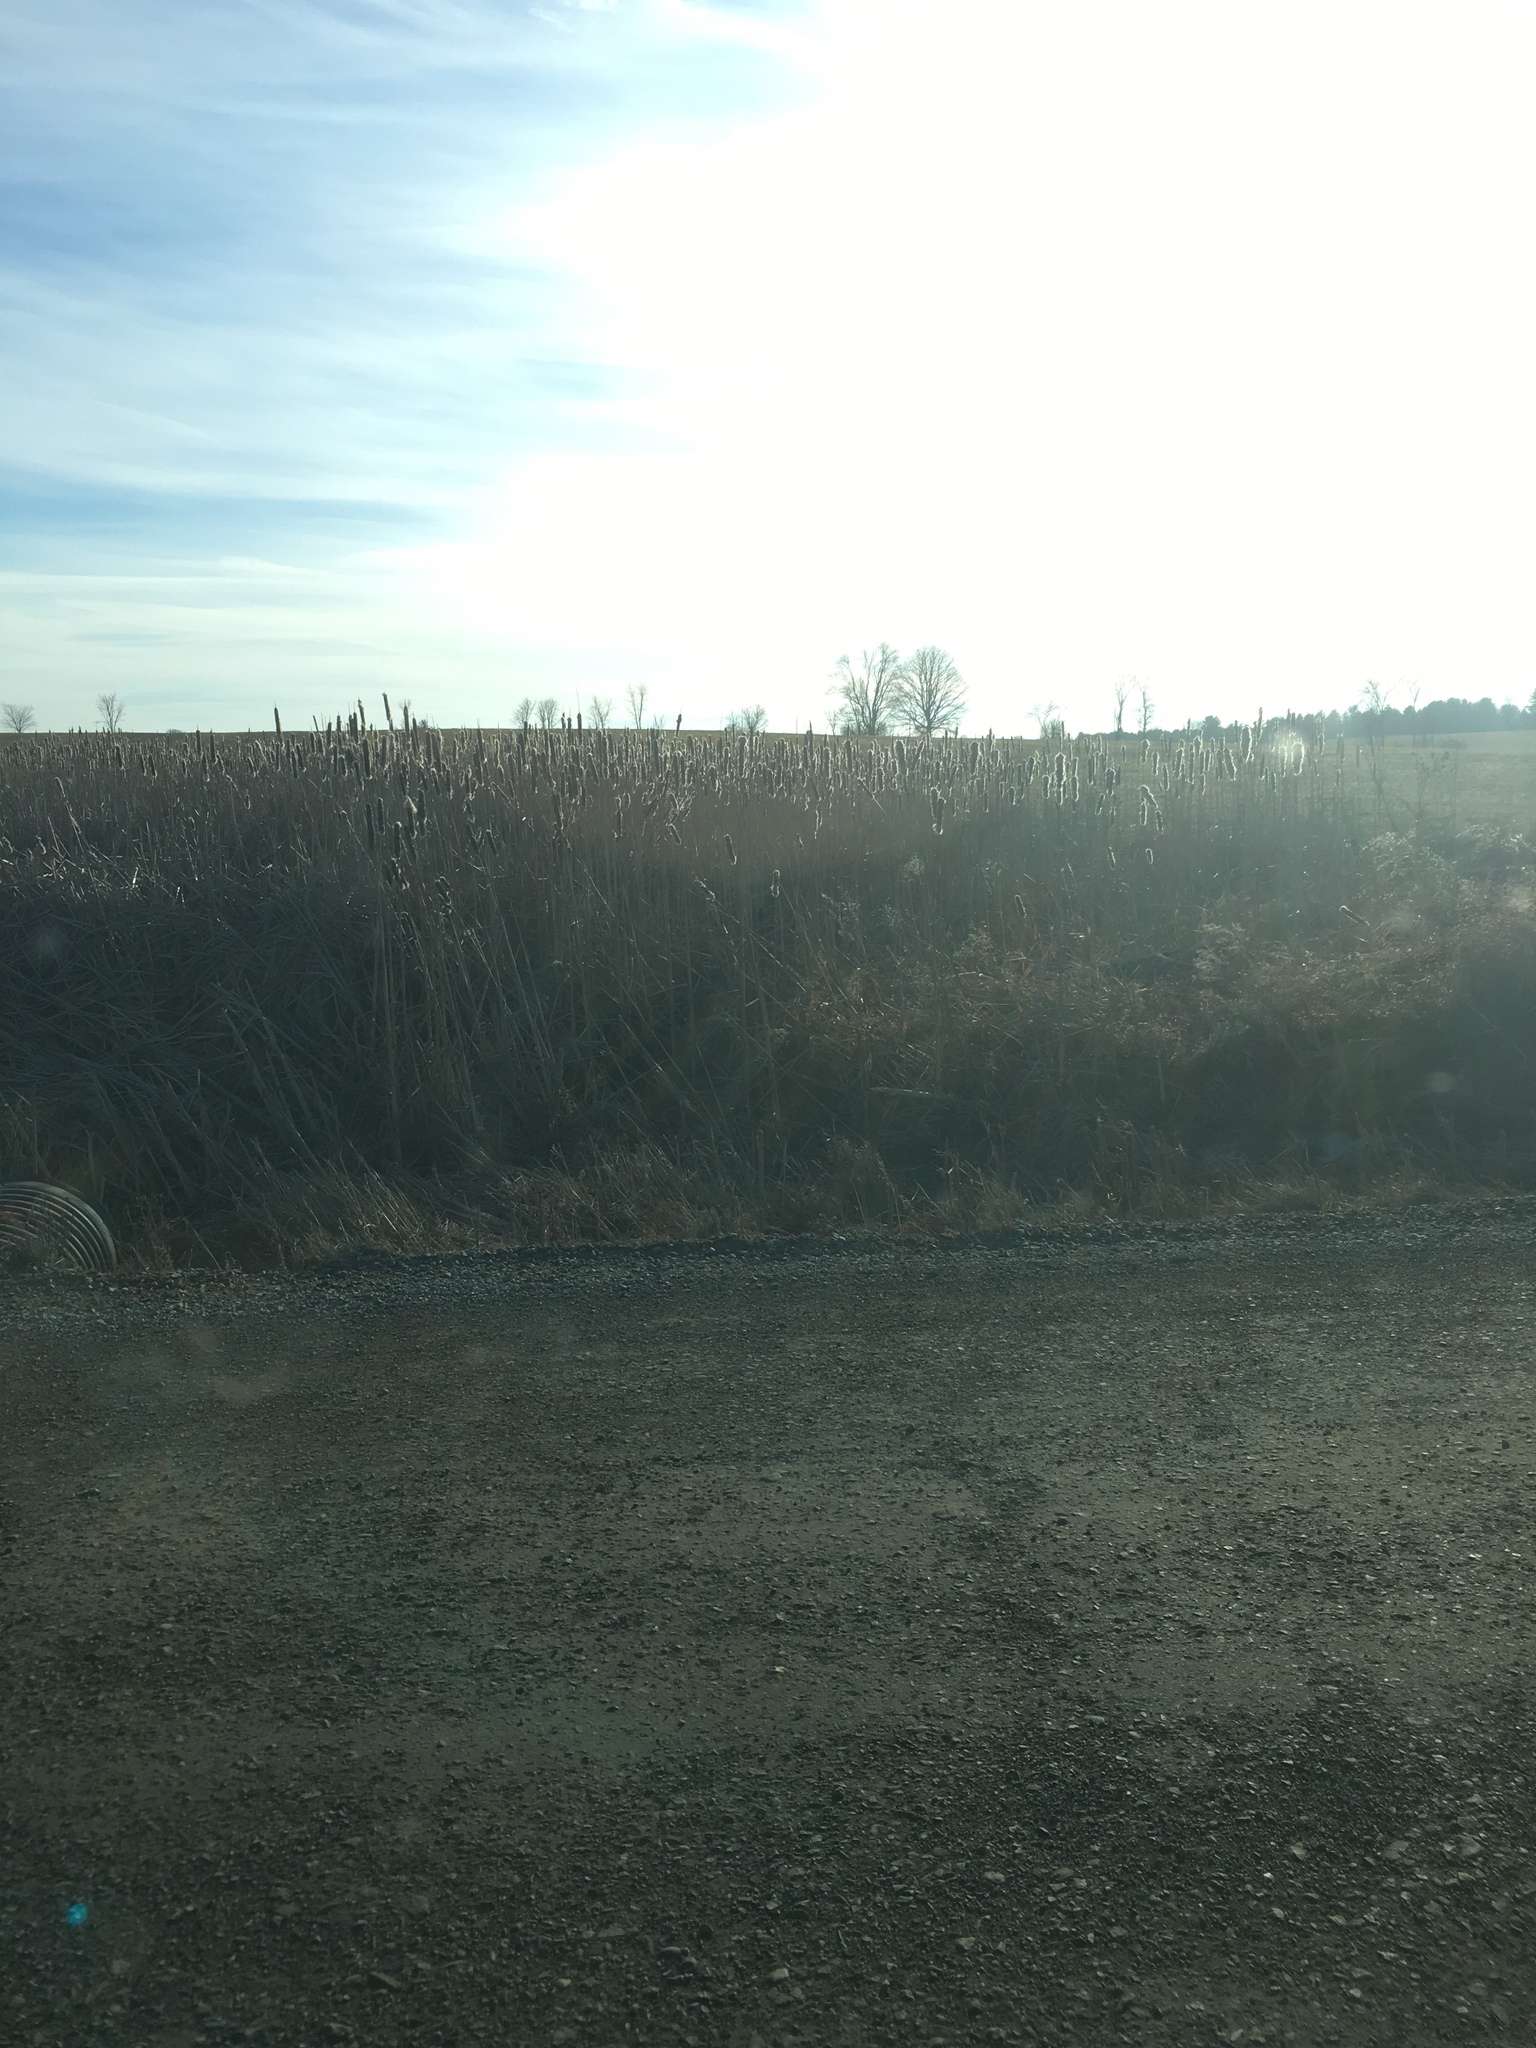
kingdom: Plantae
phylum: Tracheophyta
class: Liliopsida
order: Poales
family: Typhaceae
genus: Typha
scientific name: Typha
